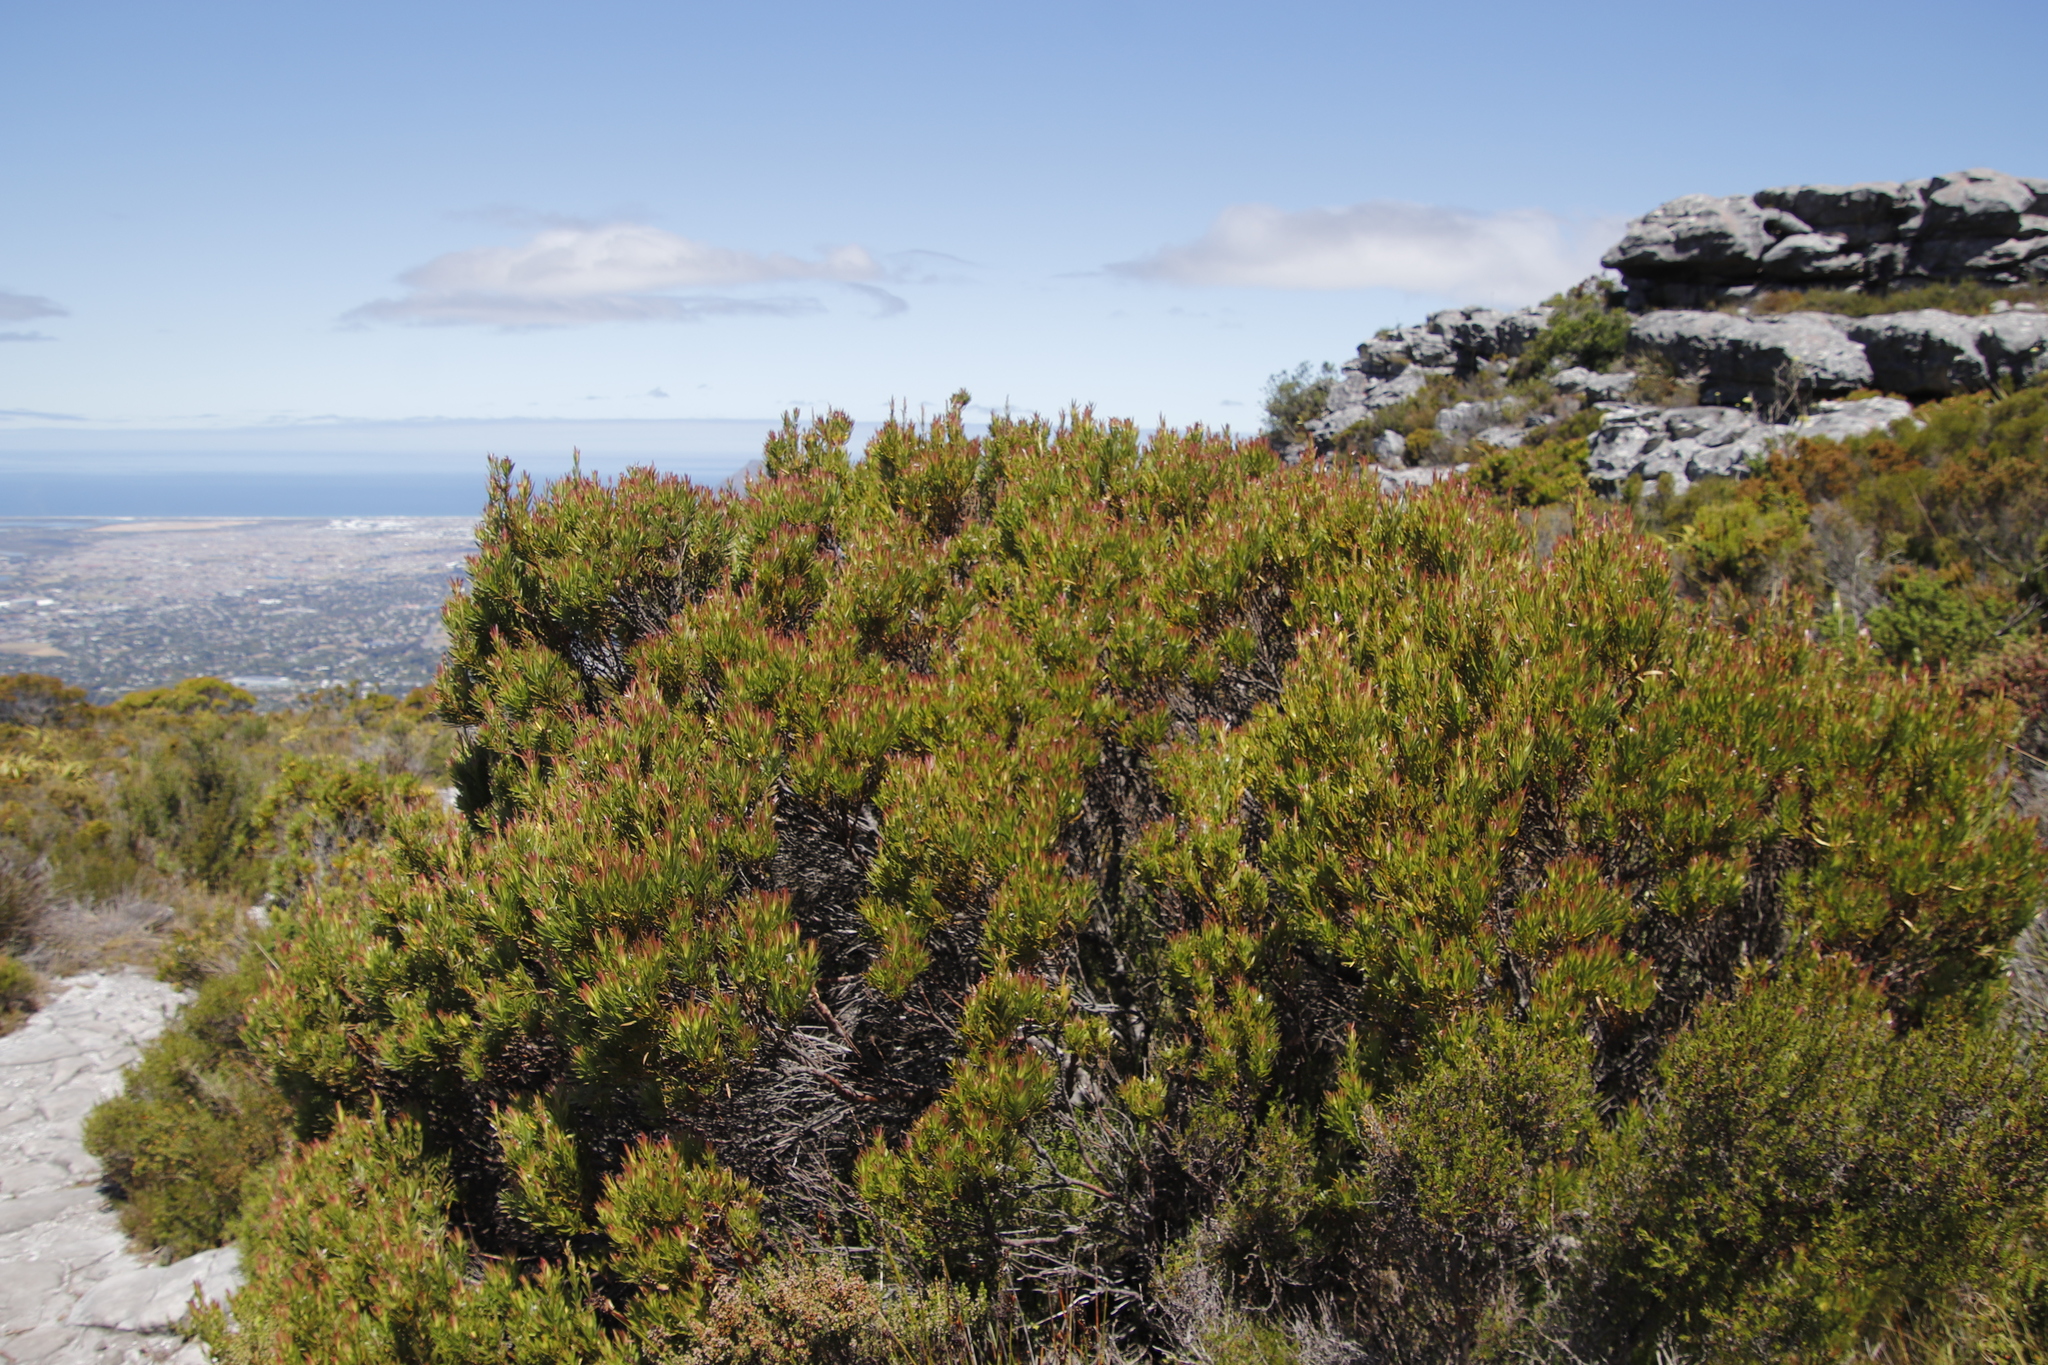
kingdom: Plantae
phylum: Tracheophyta
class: Magnoliopsida
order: Proteales
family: Proteaceae
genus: Leucadendron
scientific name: Leucadendron xanthoconus
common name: Sickle-leaf conebush
